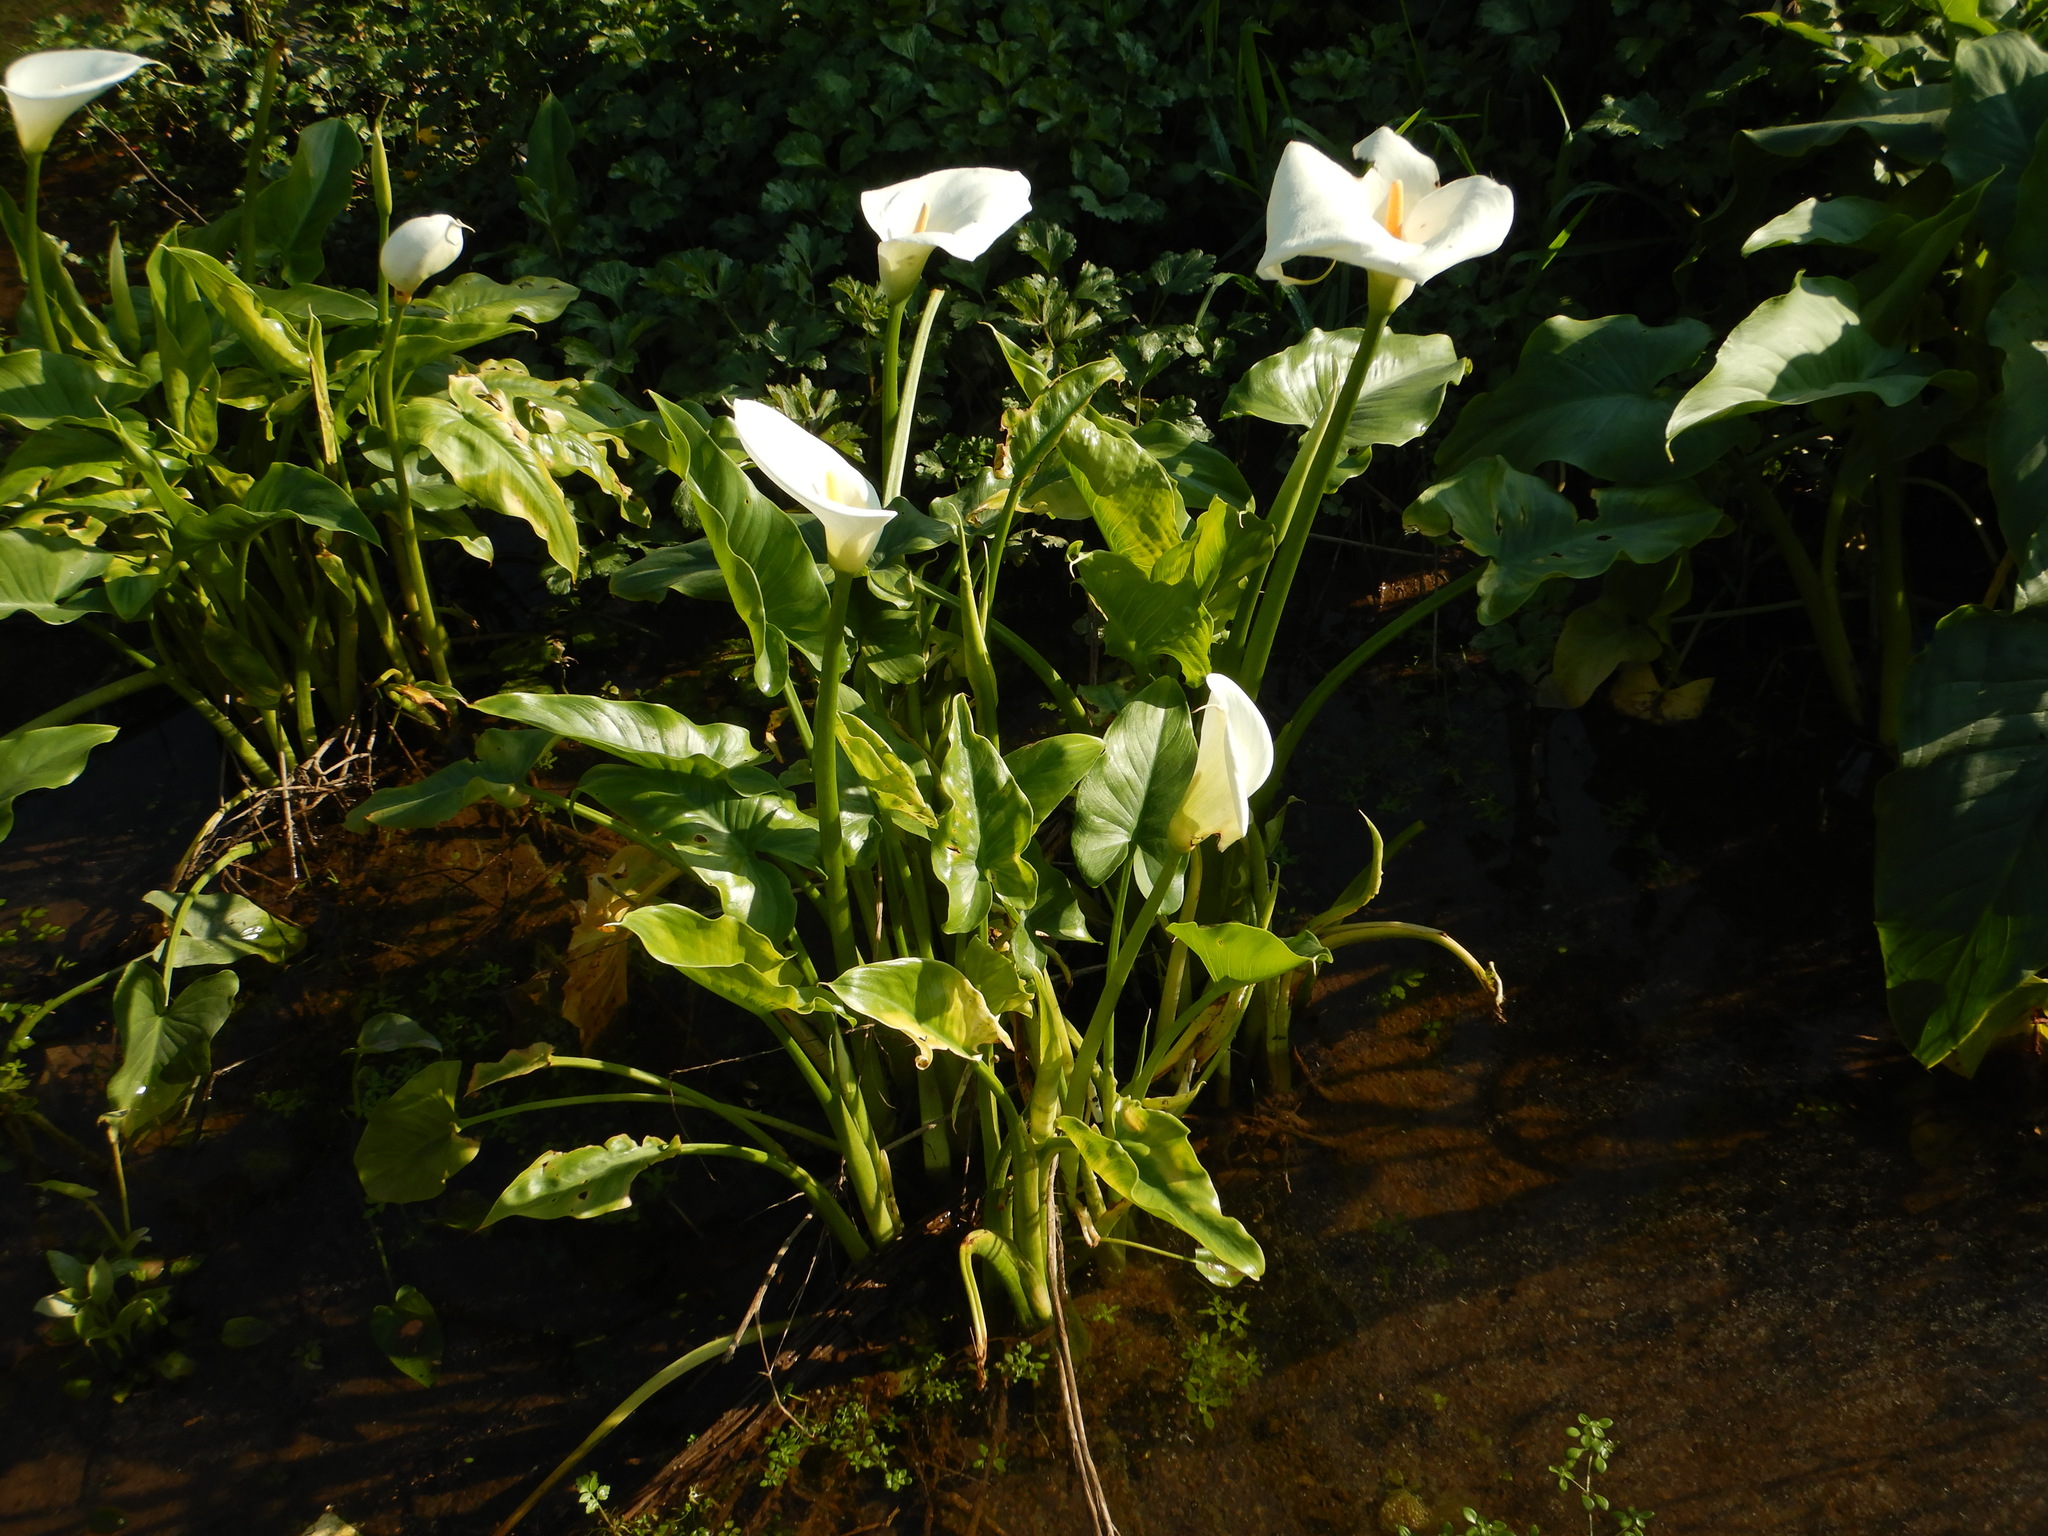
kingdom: Plantae
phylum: Tracheophyta
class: Liliopsida
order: Alismatales
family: Araceae
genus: Zantedeschia
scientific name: Zantedeschia aethiopica
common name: Altar-lily
